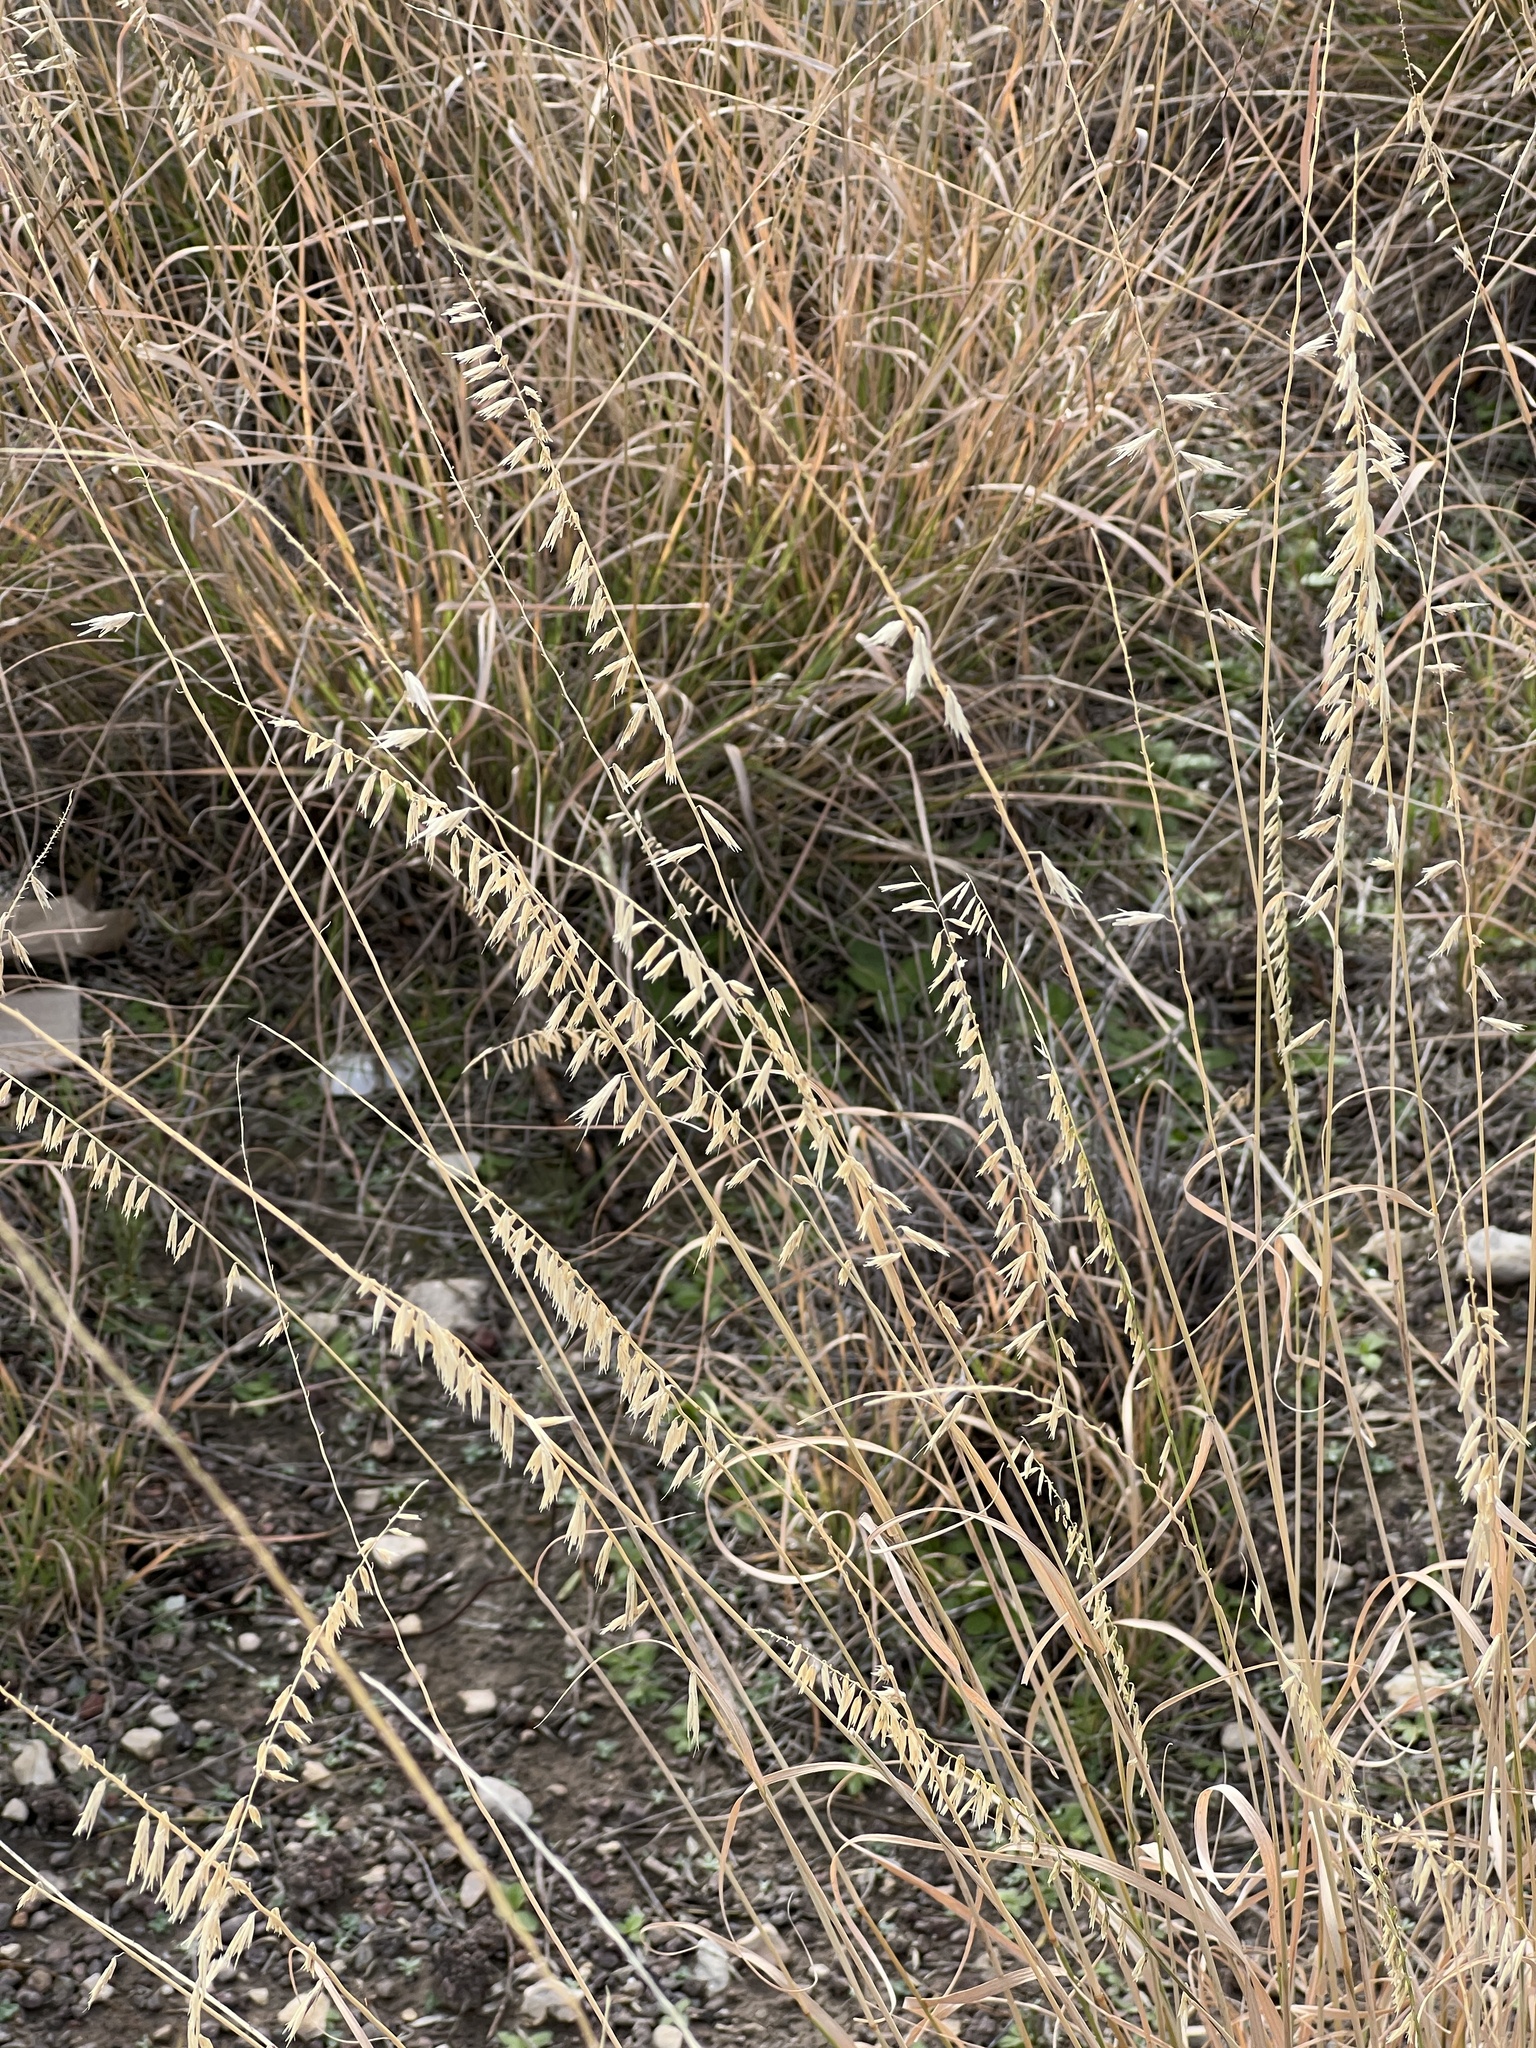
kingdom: Plantae
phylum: Tracheophyta
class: Liliopsida
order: Poales
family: Poaceae
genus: Bouteloua
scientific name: Bouteloua curtipendula
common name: Side-oats grama
